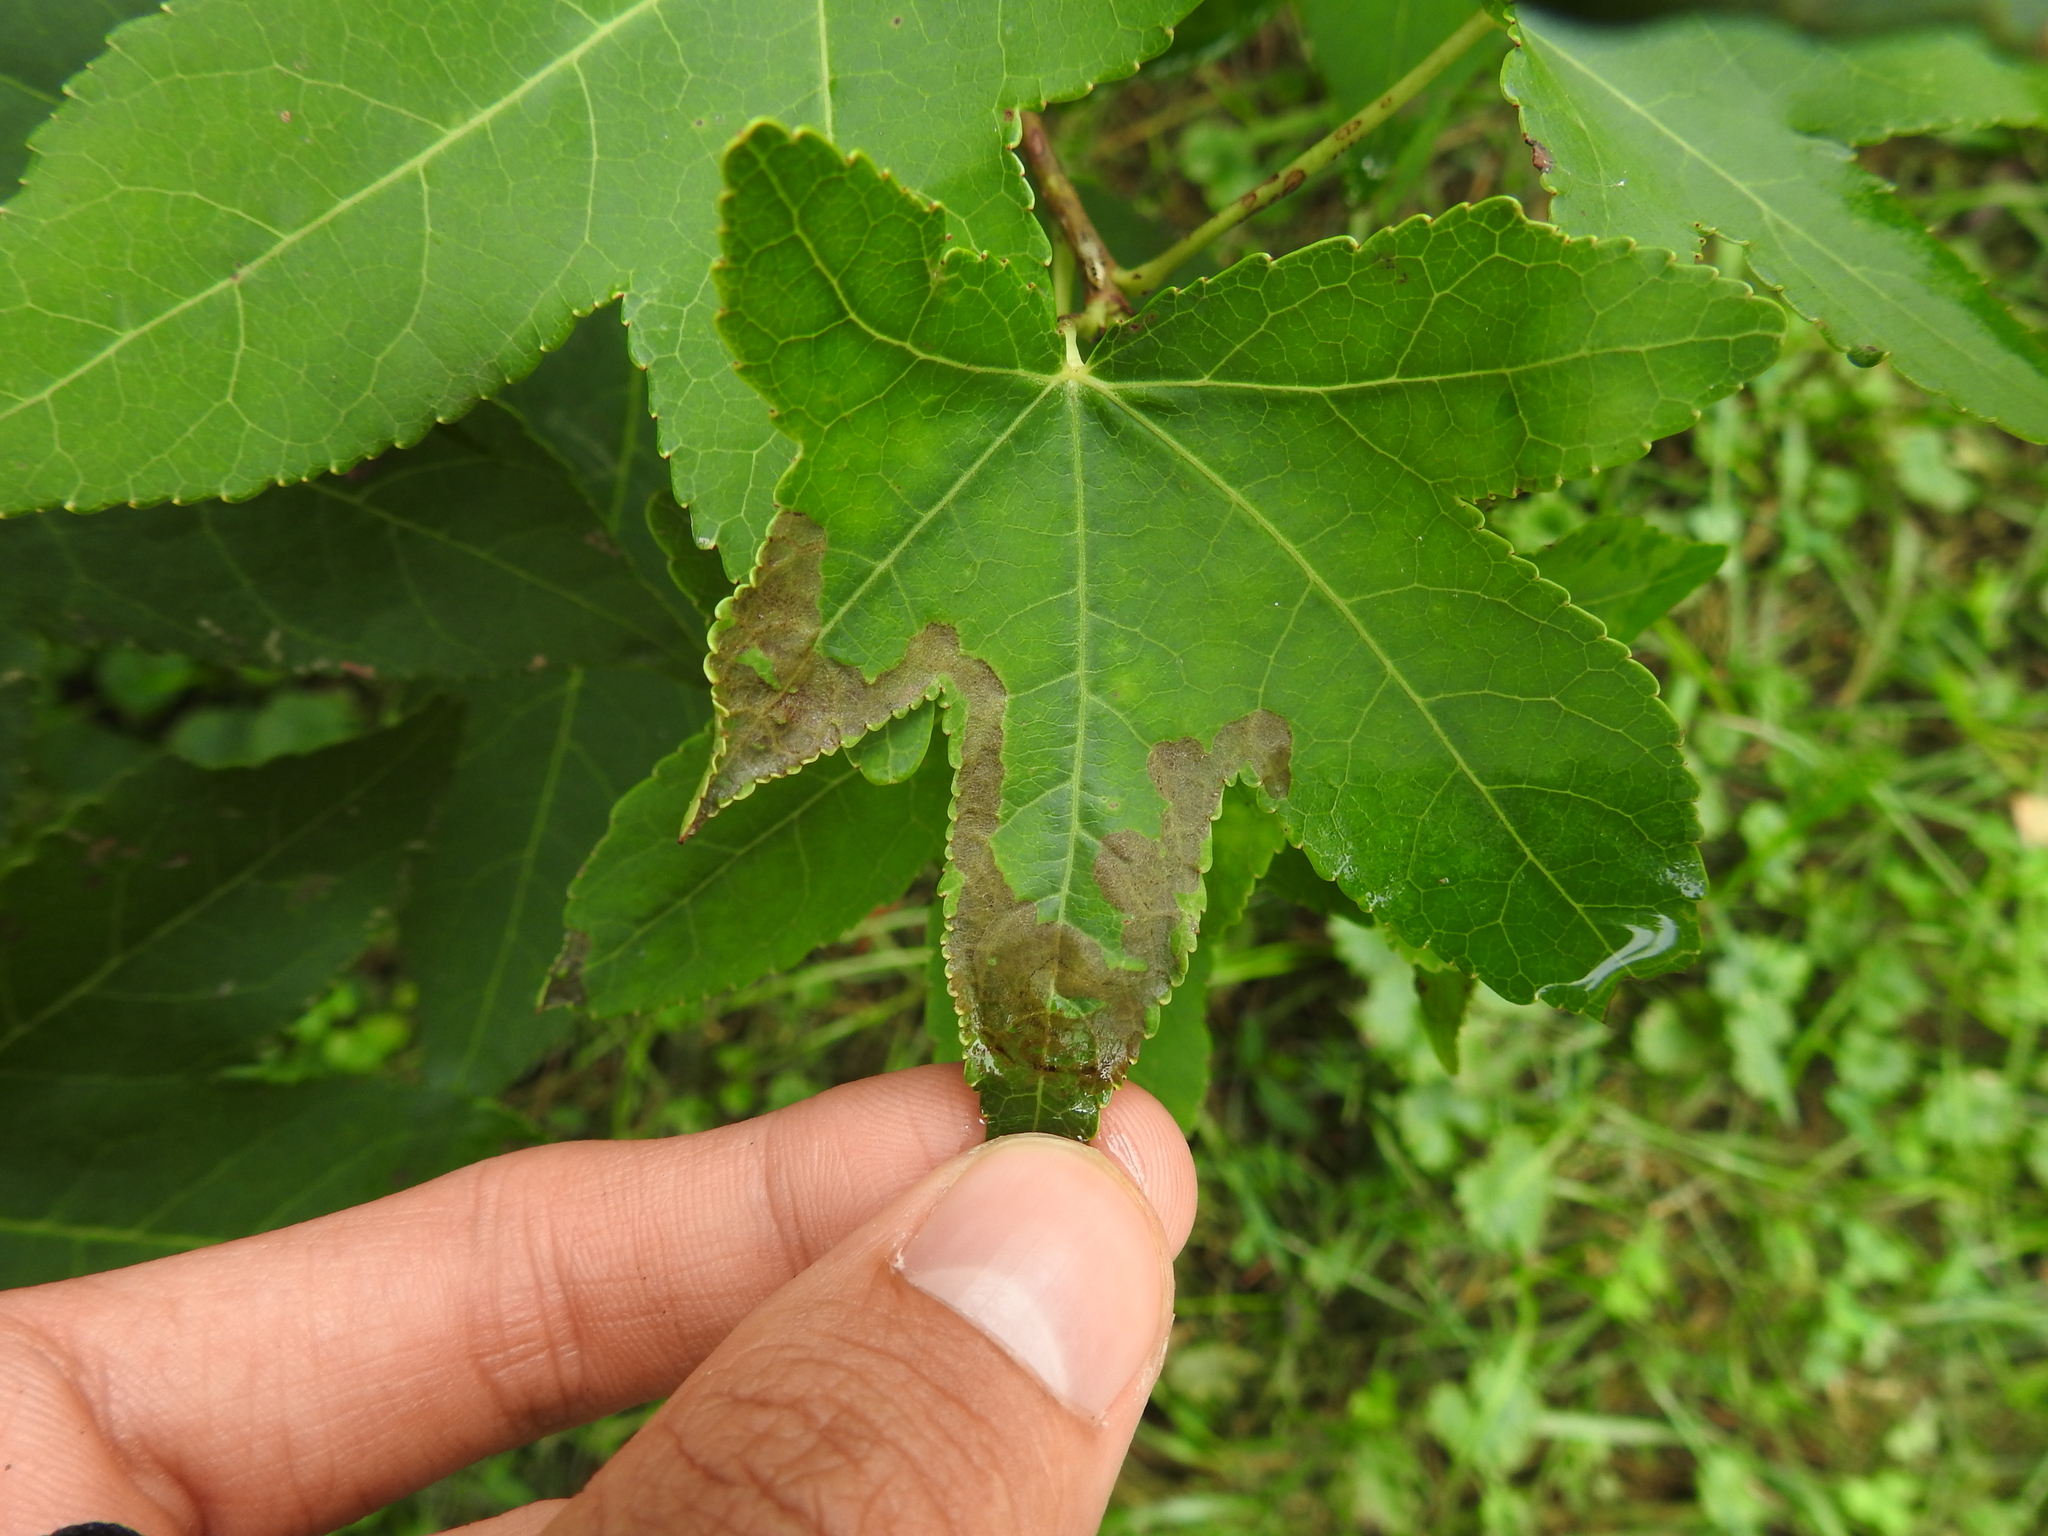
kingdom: Animalia
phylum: Arthropoda
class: Insecta
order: Lepidoptera
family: Gracillariidae
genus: Phyllocnistis
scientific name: Phyllocnistis liquidambarisella
